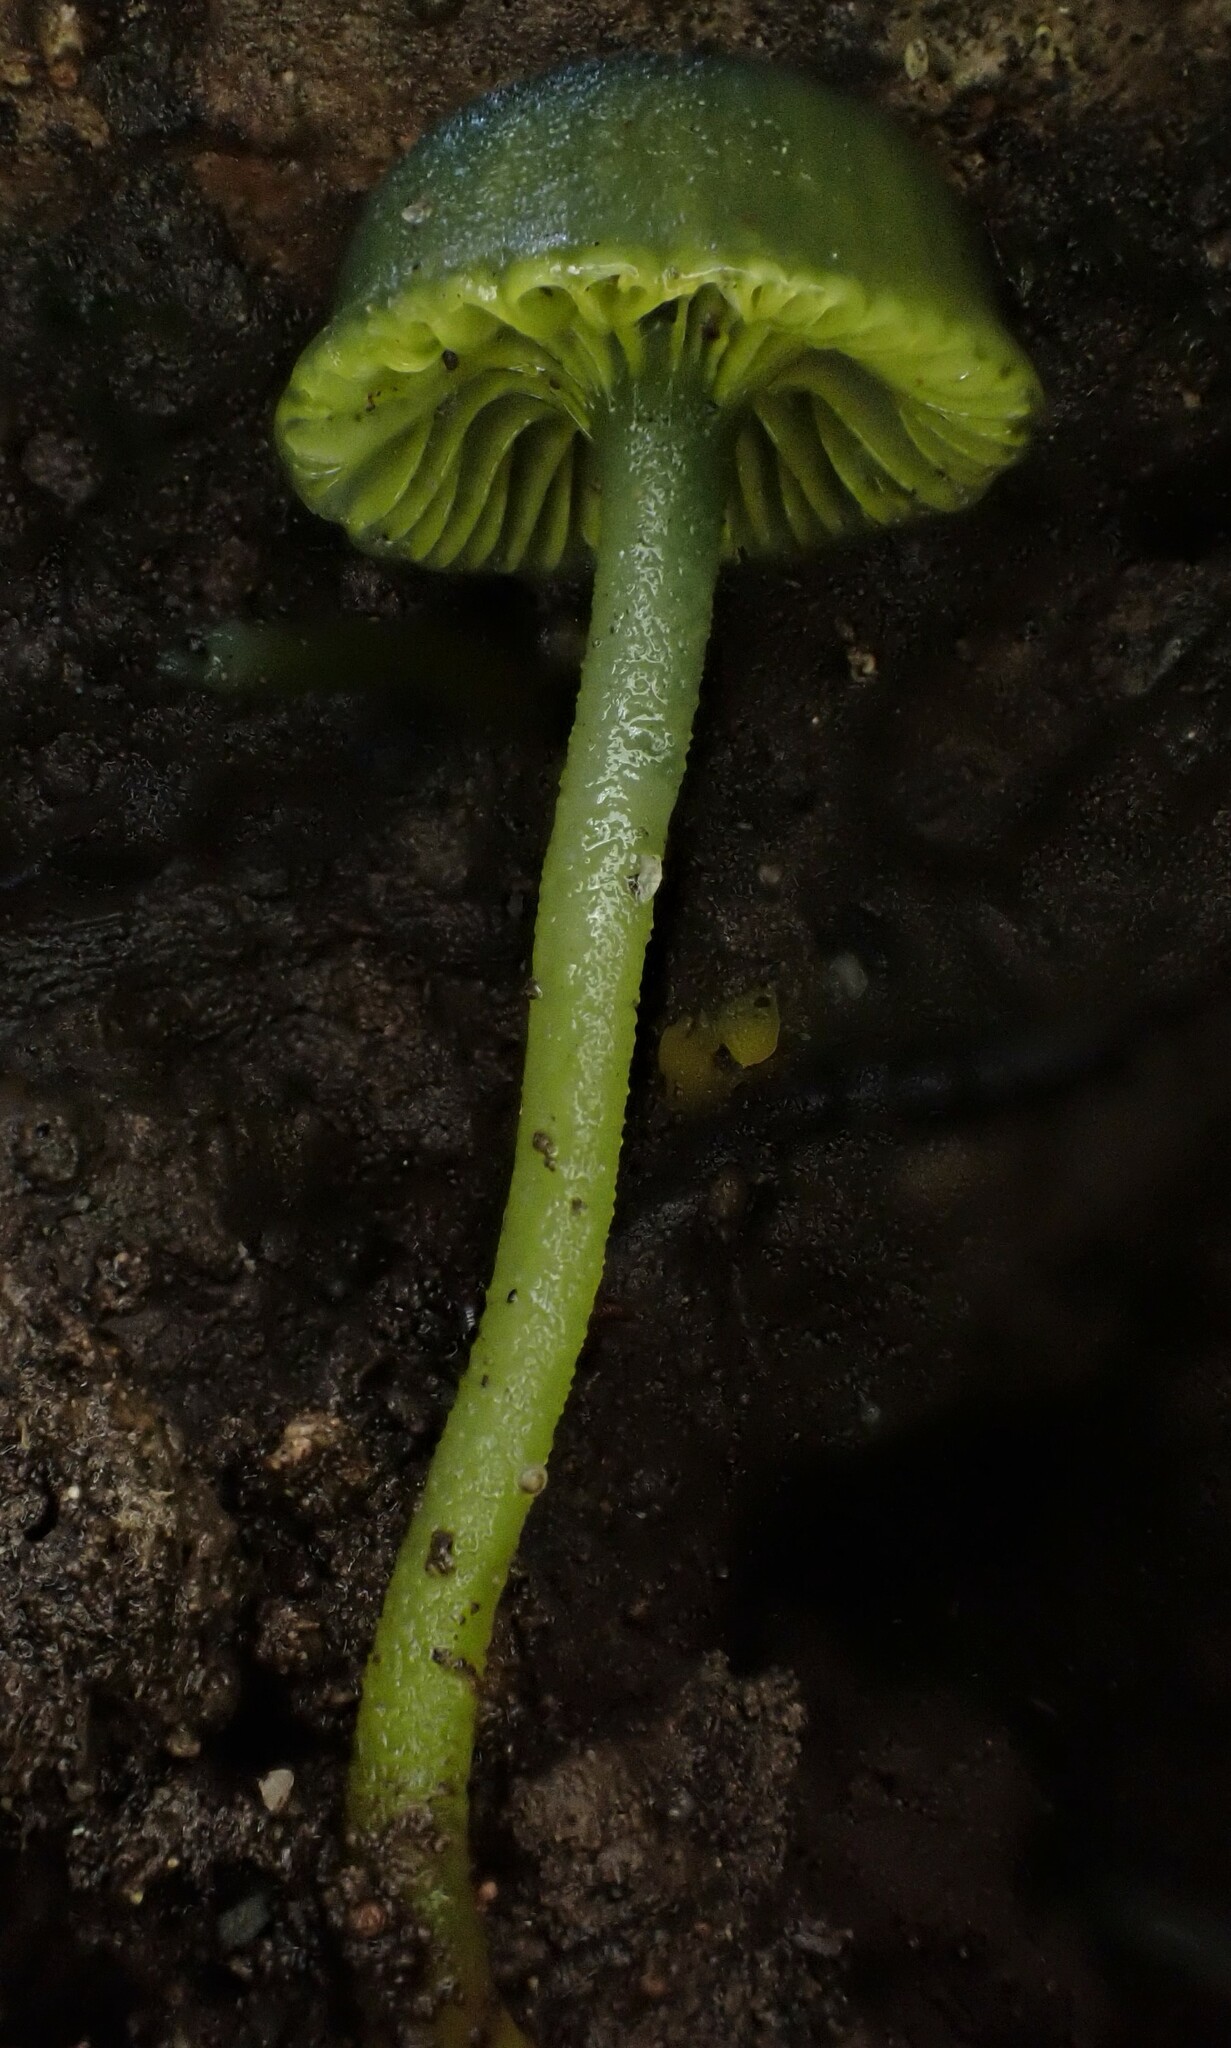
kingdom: Fungi
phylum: Basidiomycota
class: Agaricomycetes
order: Agaricales
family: Hygrophoraceae
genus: Gliophorus
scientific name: Gliophorus pseudograminicolor
